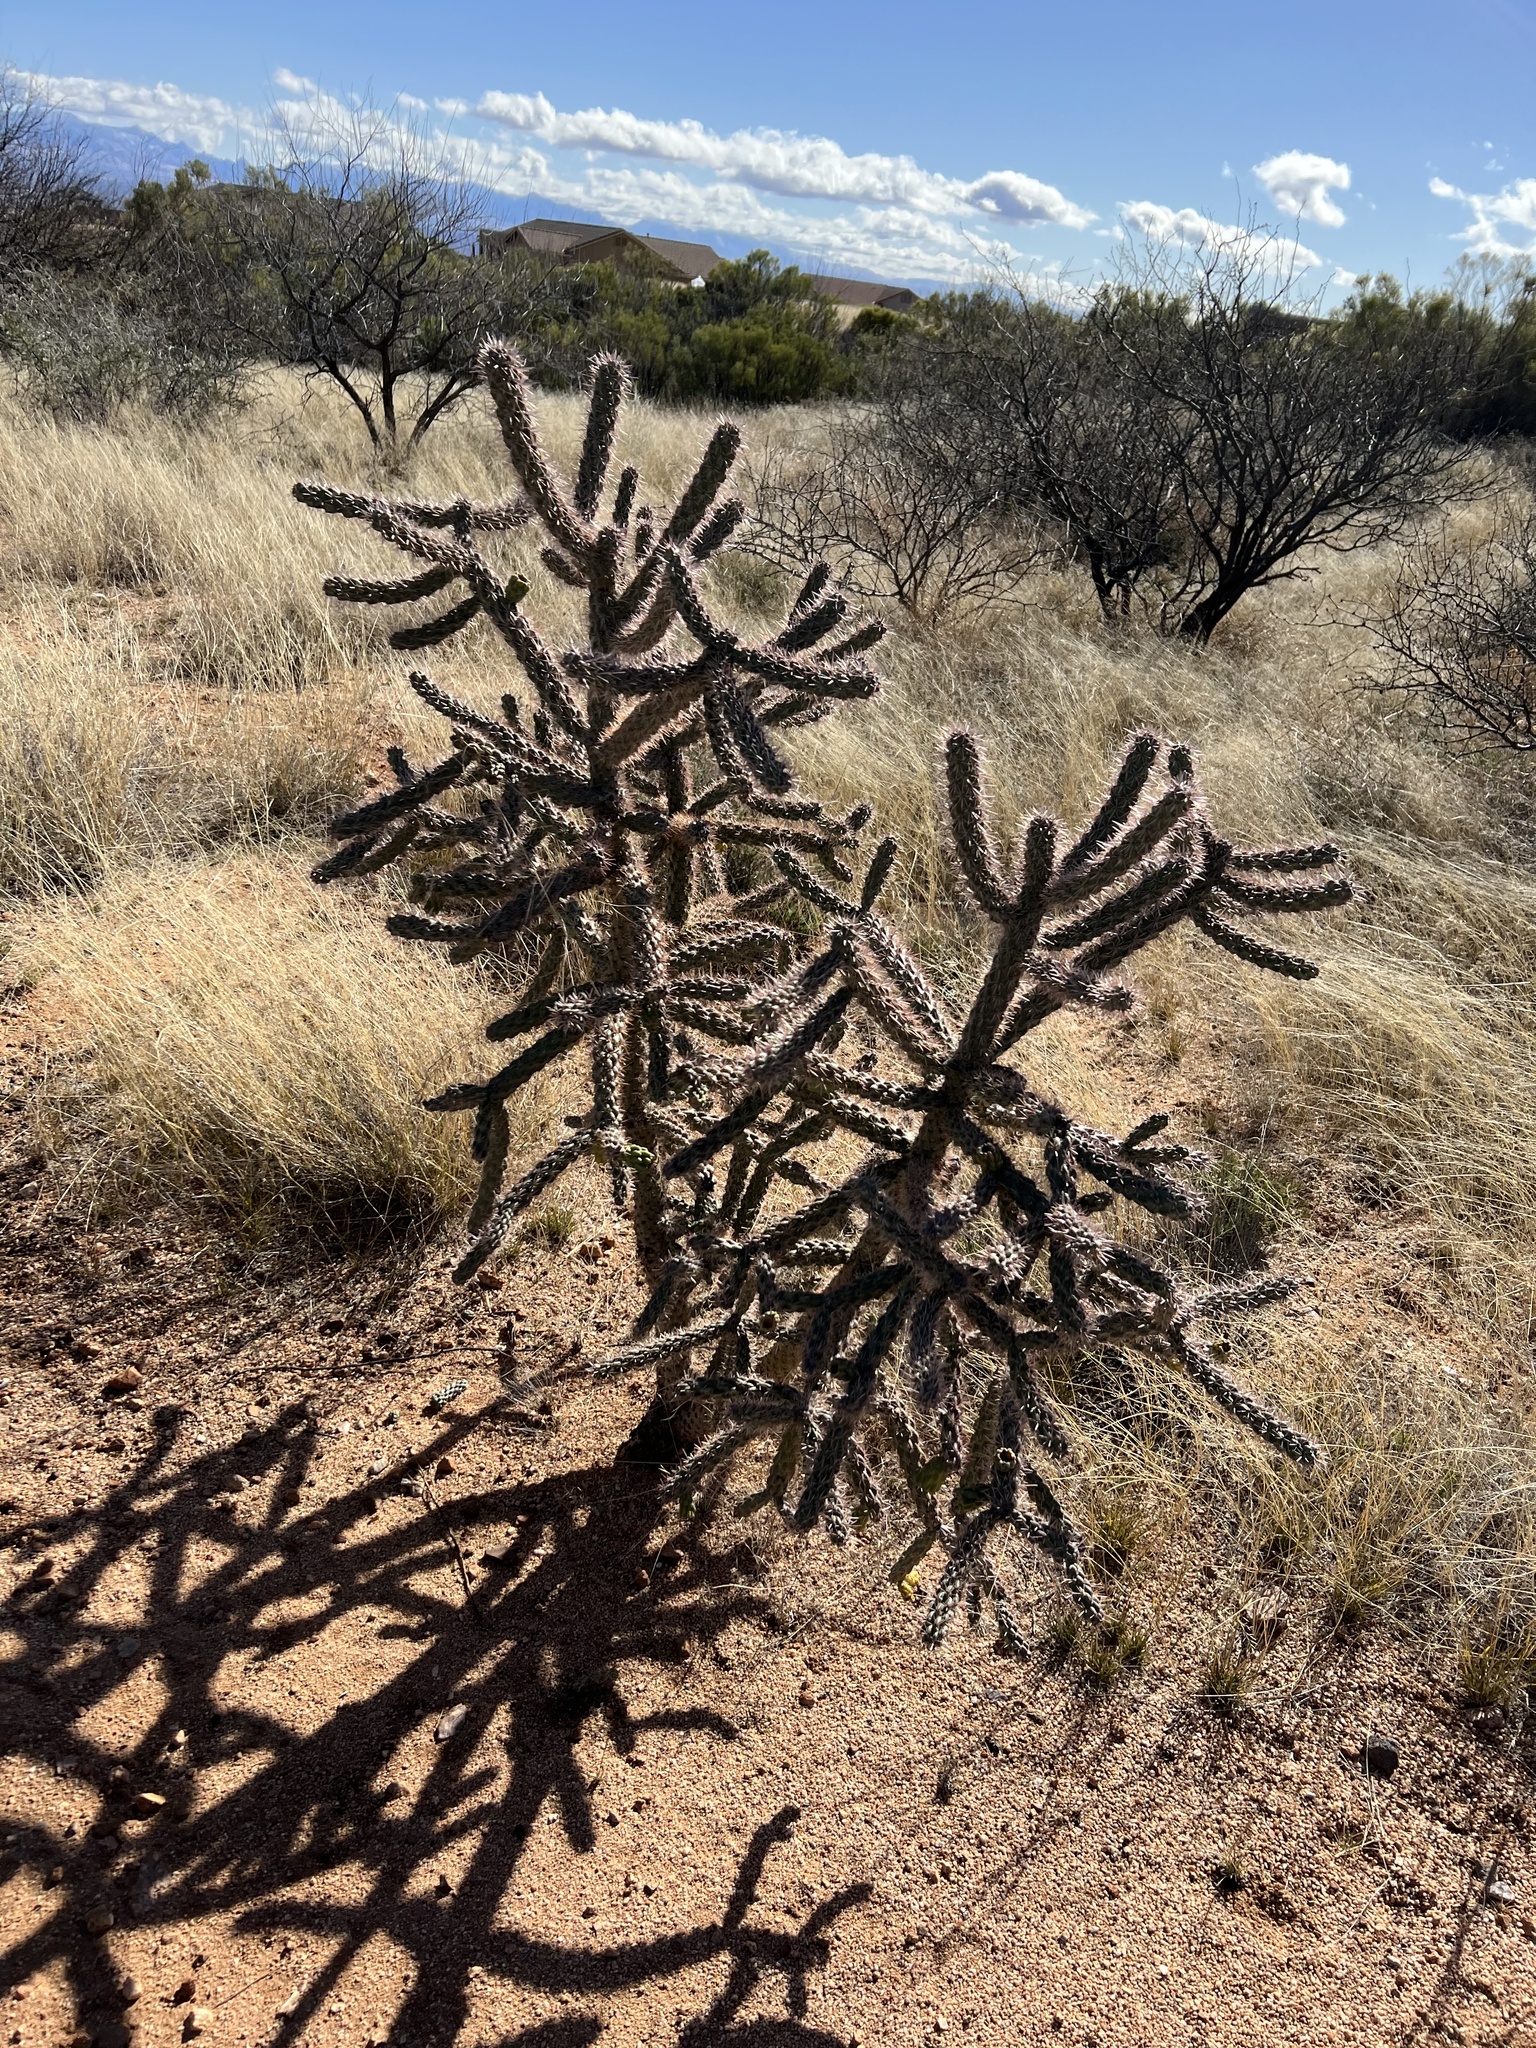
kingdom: Plantae
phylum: Tracheophyta
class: Magnoliopsida
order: Caryophyllales
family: Cactaceae
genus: Cylindropuntia
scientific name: Cylindropuntia imbricata
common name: Candelabrum cactus
